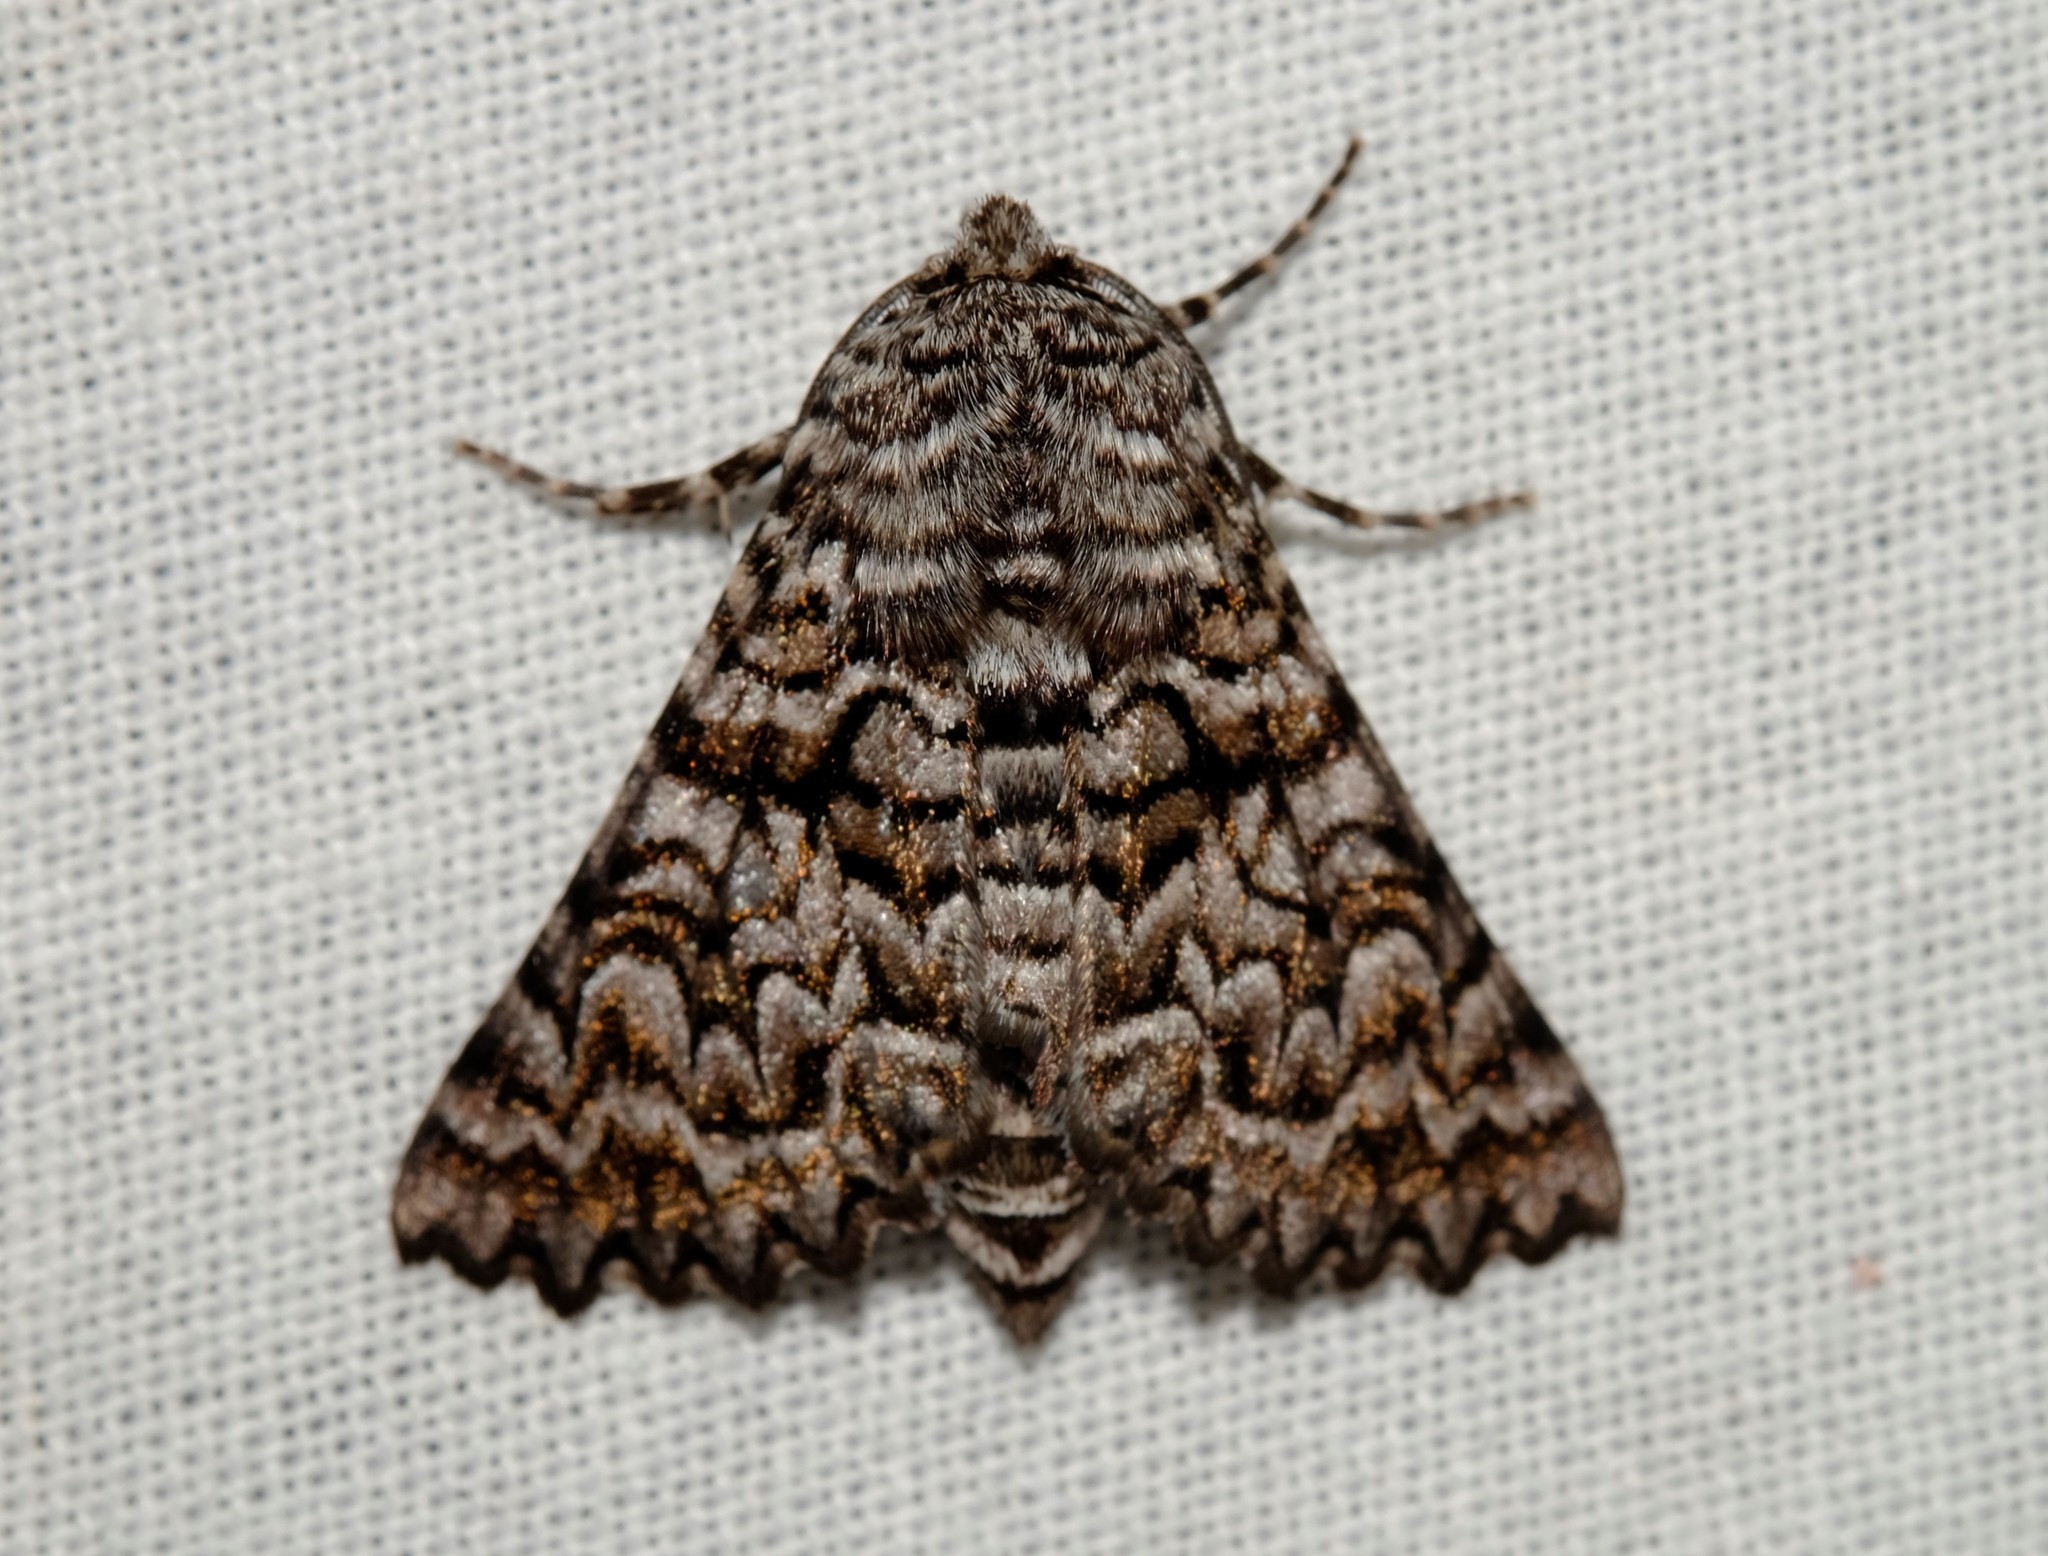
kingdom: Animalia
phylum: Arthropoda
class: Insecta
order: Lepidoptera
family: Geometridae
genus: Dinophalus
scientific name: Dinophalus serpentaria
